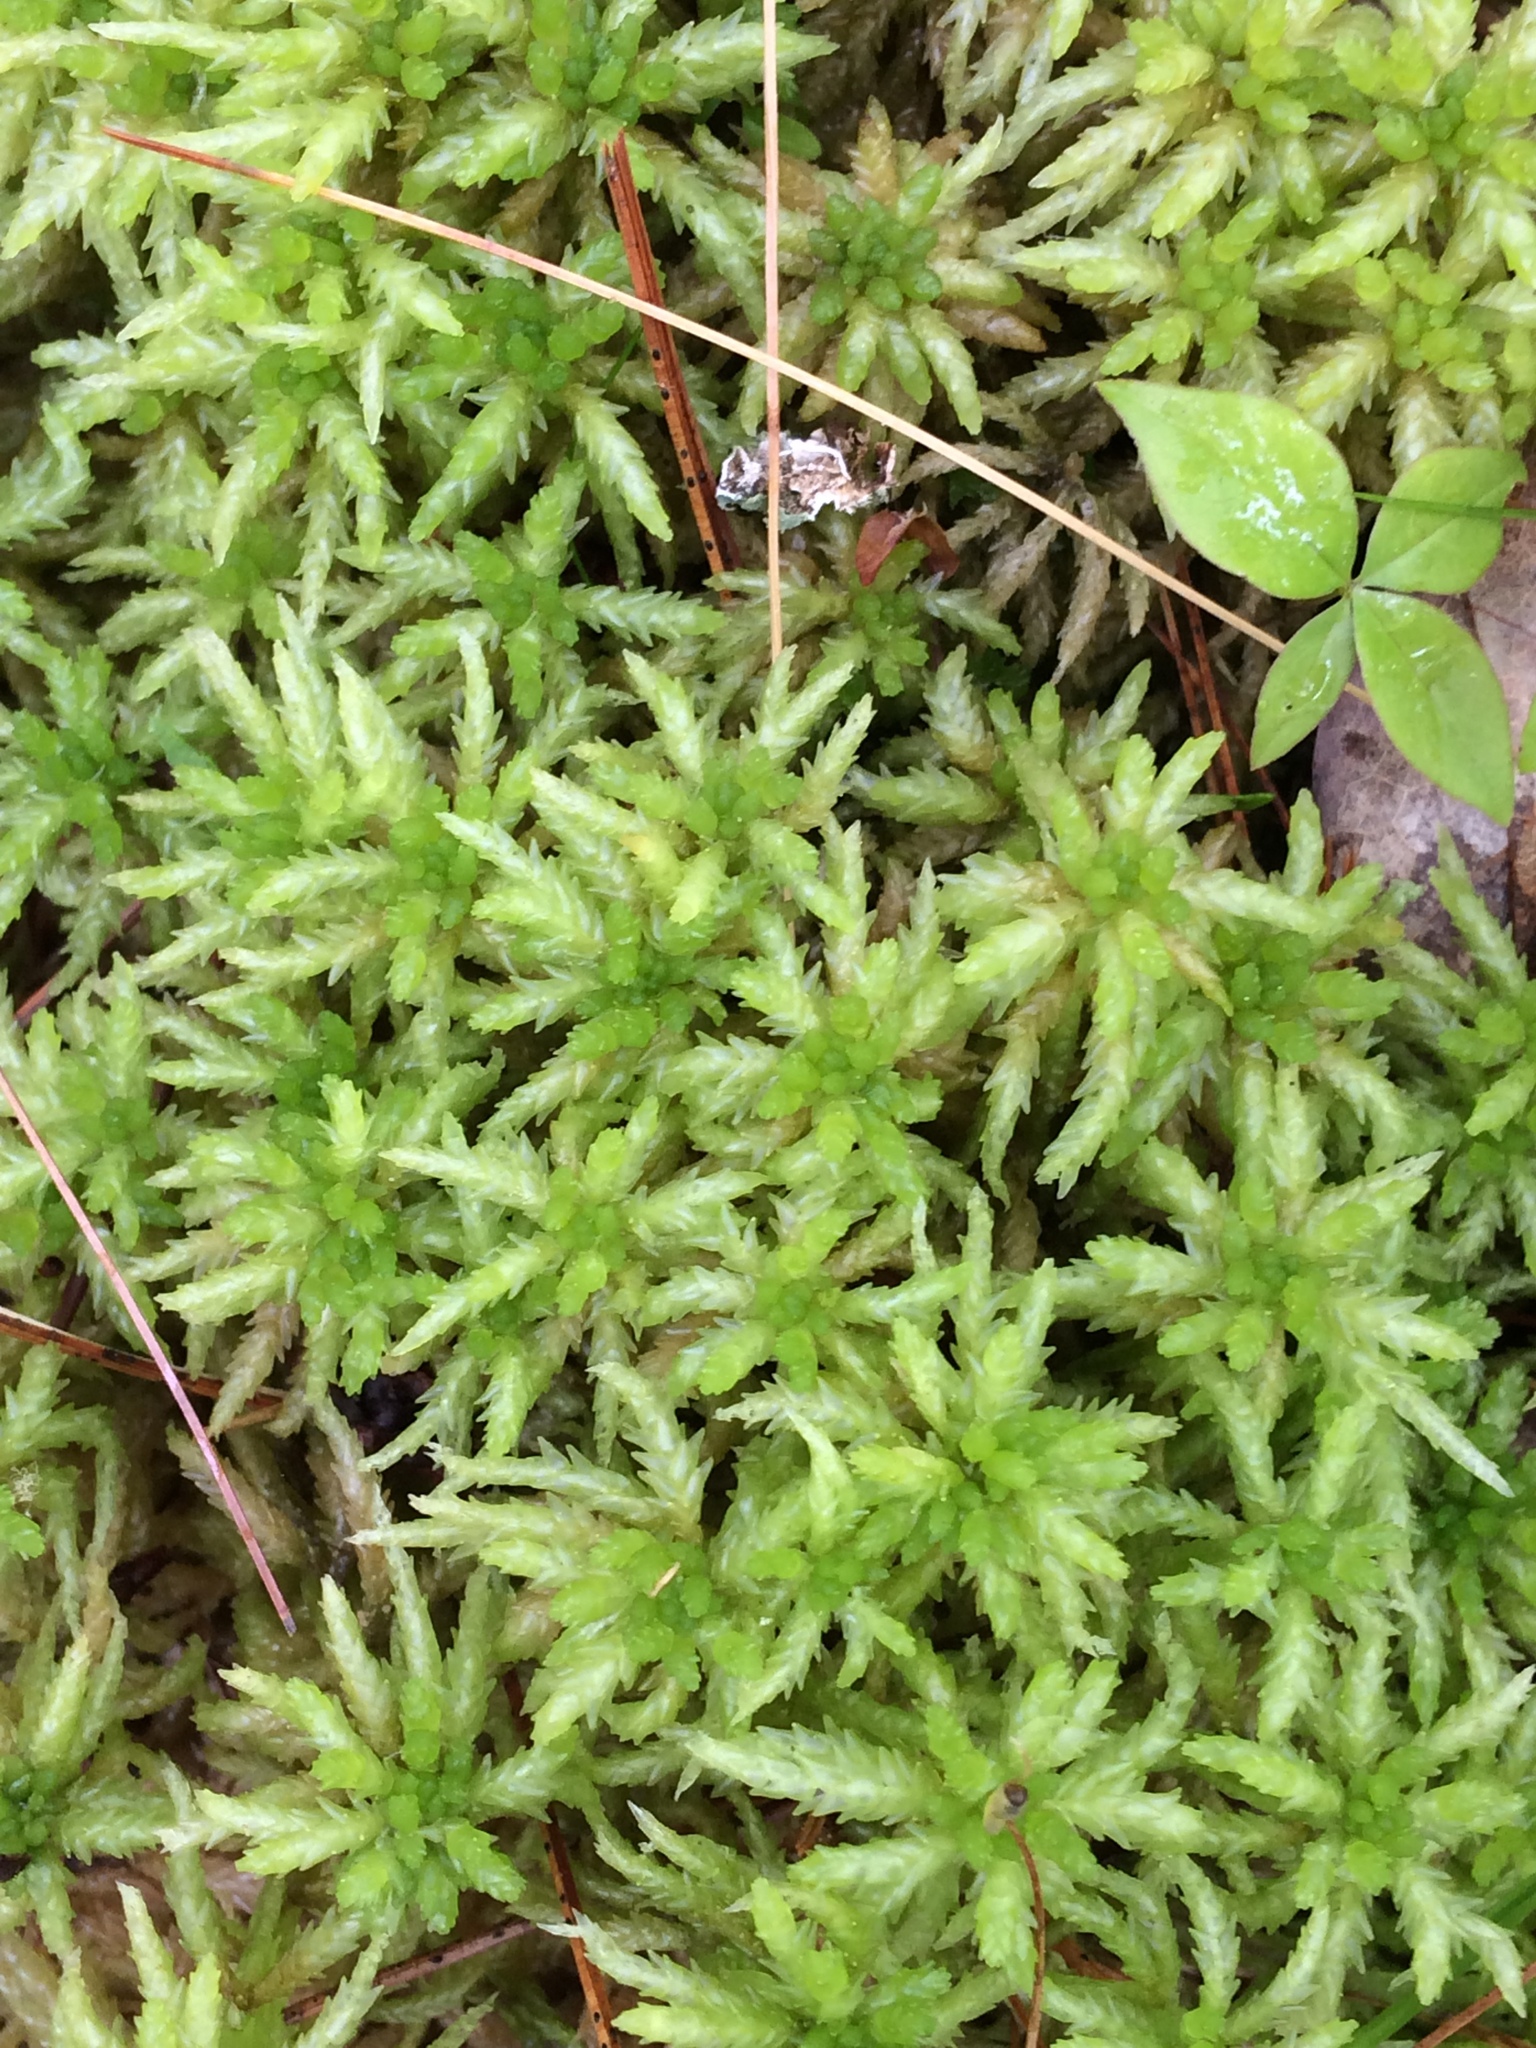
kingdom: Plantae
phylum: Bryophyta
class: Sphagnopsida
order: Sphagnales
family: Sphagnaceae
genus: Sphagnum
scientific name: Sphagnum
